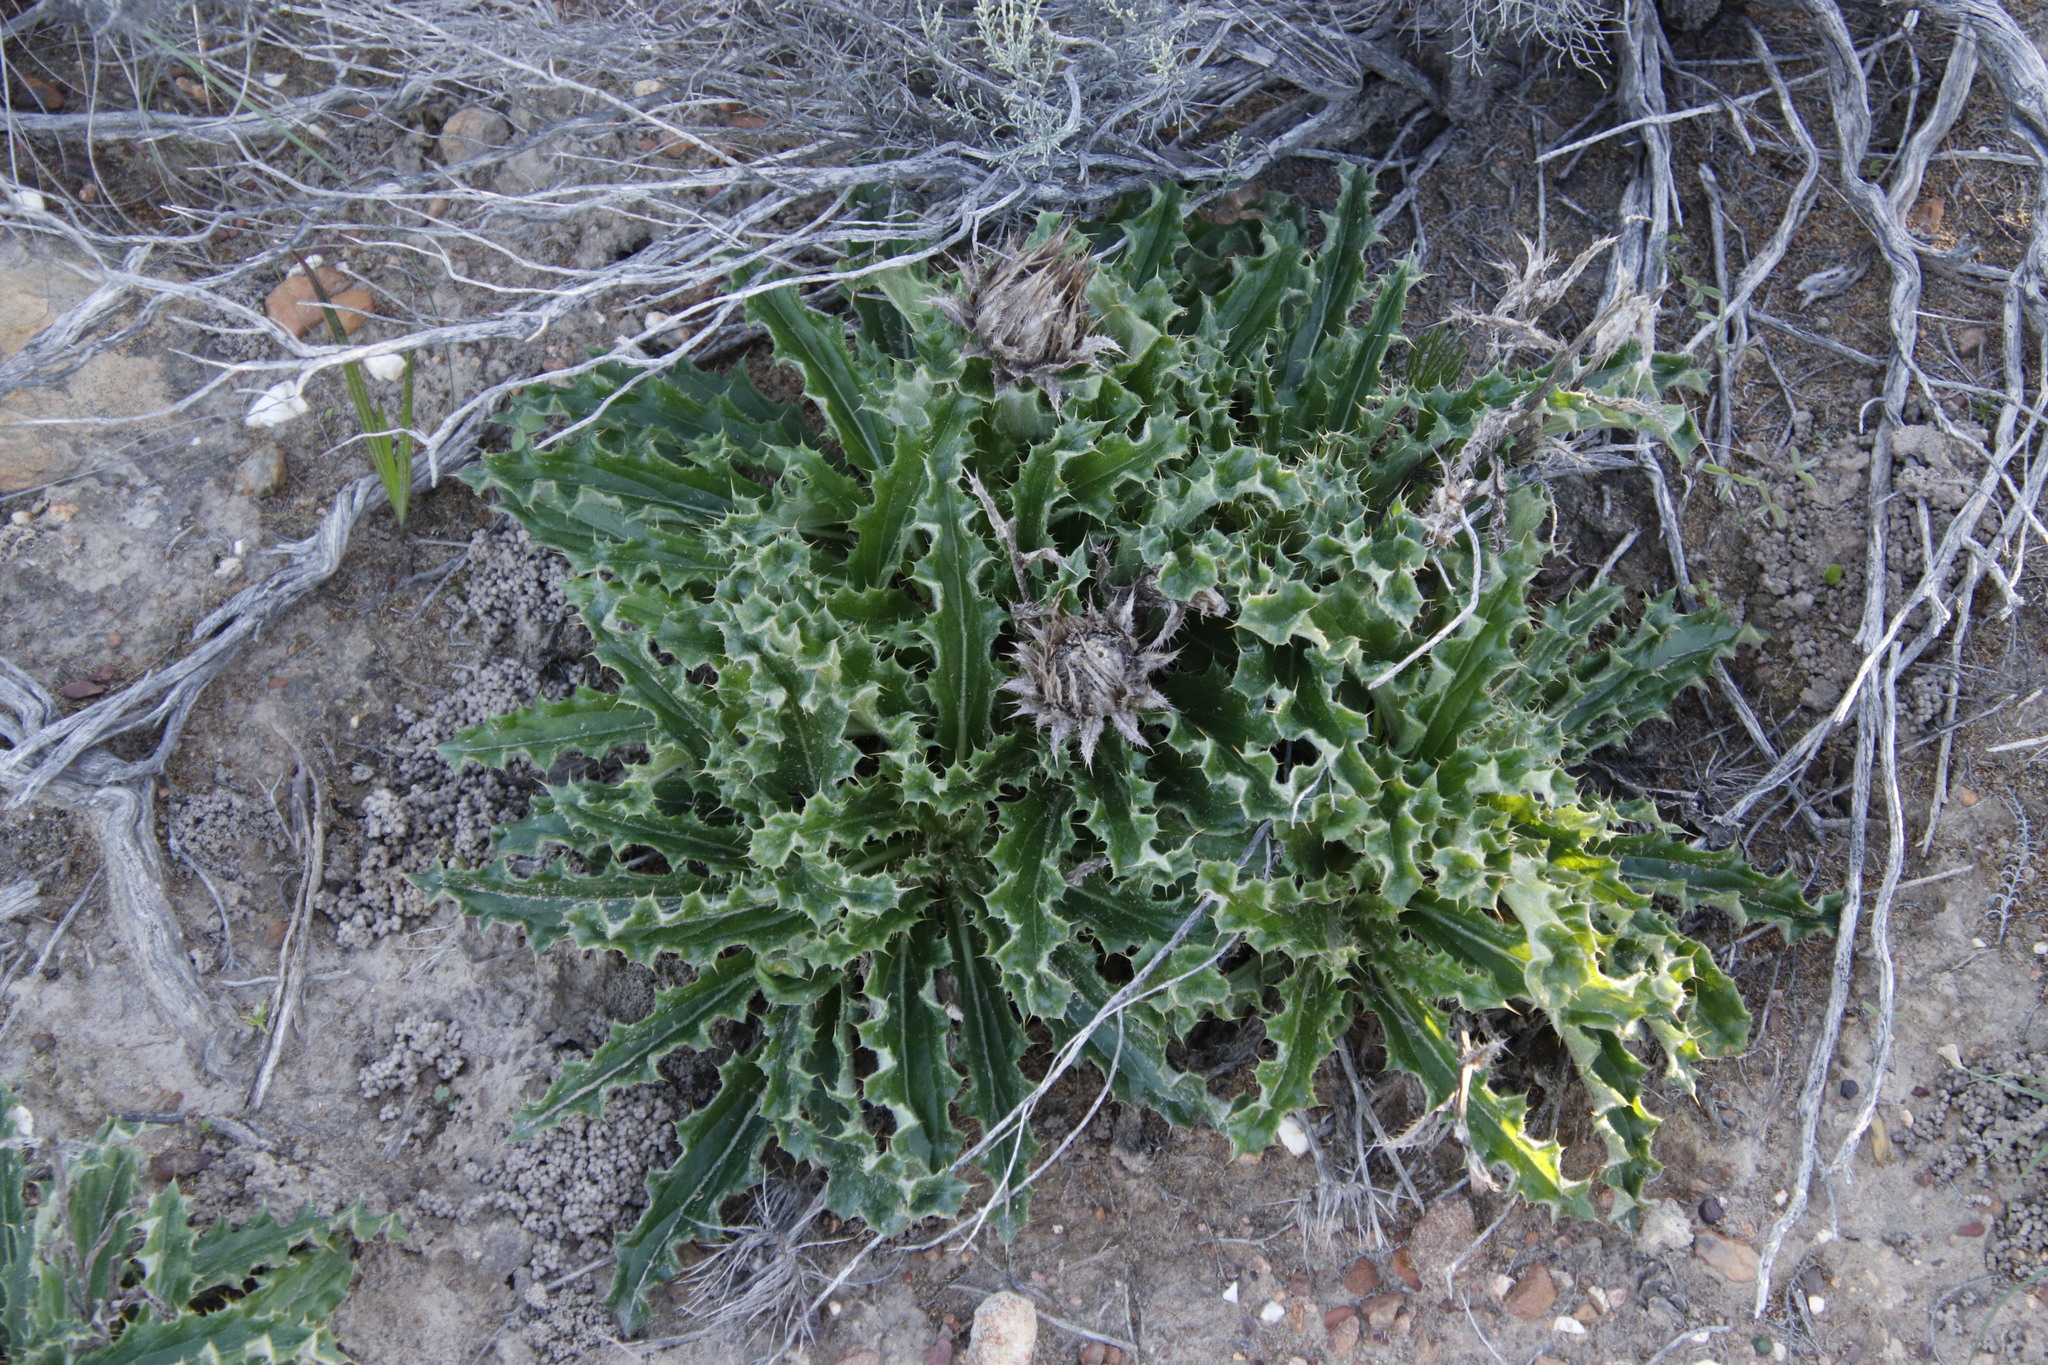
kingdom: Plantae
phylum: Tracheophyta
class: Magnoliopsida
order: Asterales
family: Asteraceae
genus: Berkheya
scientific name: Berkheya armata
